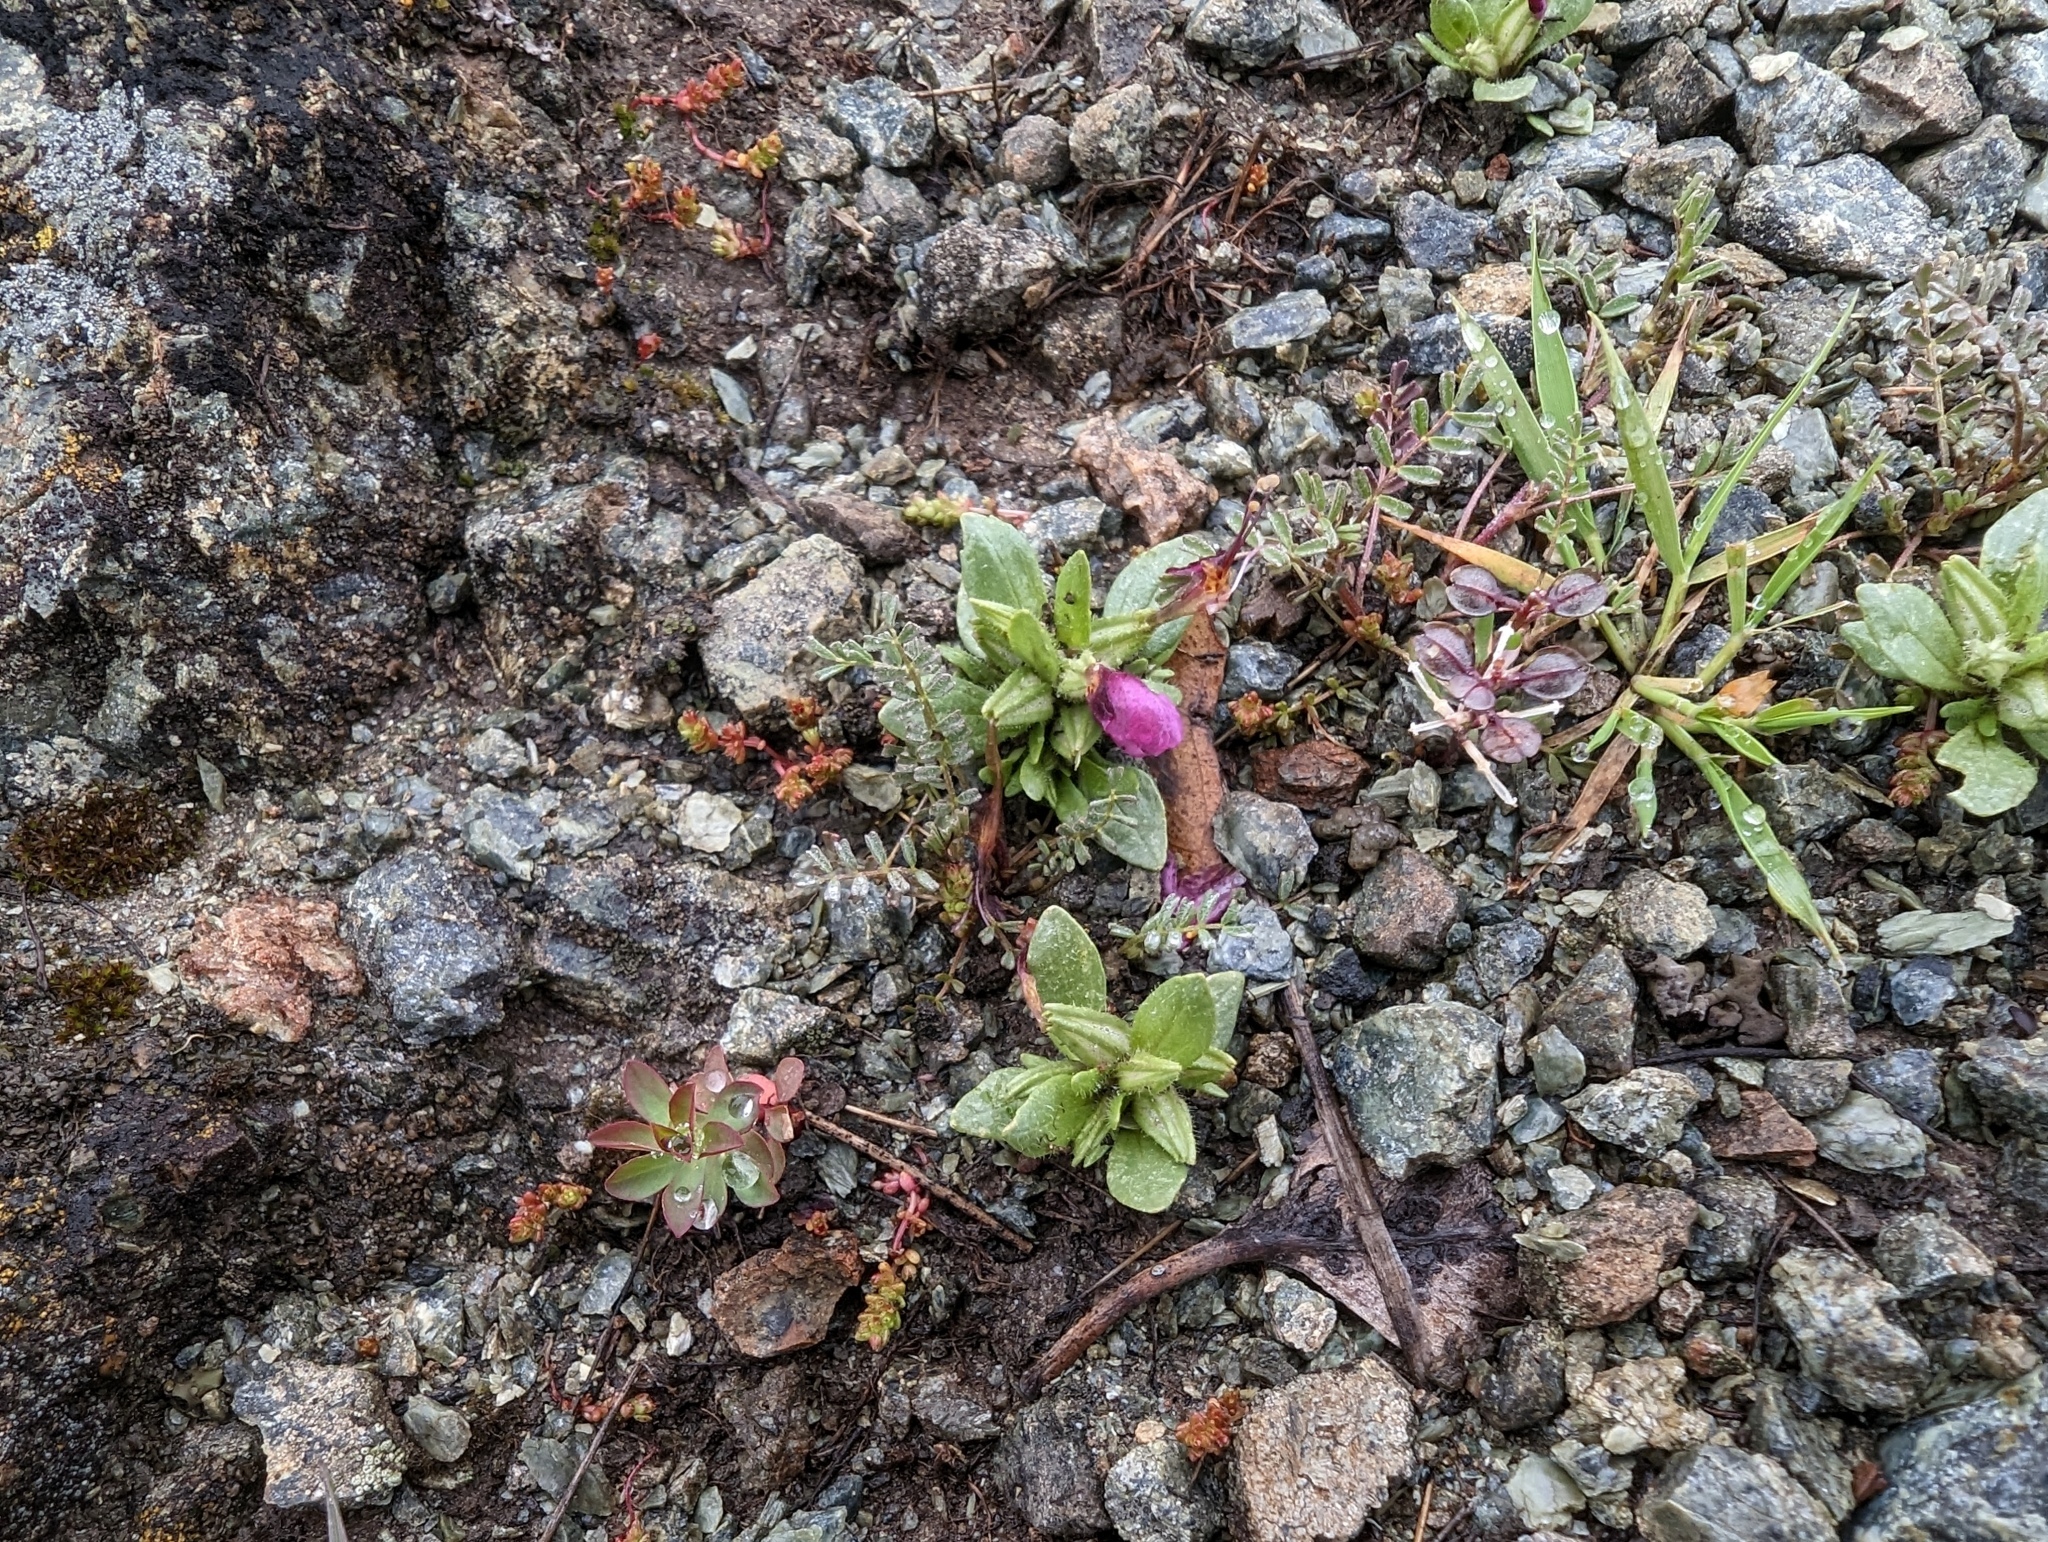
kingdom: Plantae
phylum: Tracheophyta
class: Magnoliopsida
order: Lamiales
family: Phrymaceae
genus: Diplacus
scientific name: Diplacus douglasii
